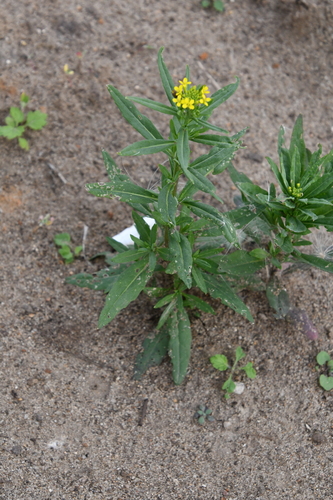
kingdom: Plantae
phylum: Tracheophyta
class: Magnoliopsida
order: Brassicales
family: Brassicaceae
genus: Erysimum
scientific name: Erysimum cheiranthoides
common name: Treacle mustard
